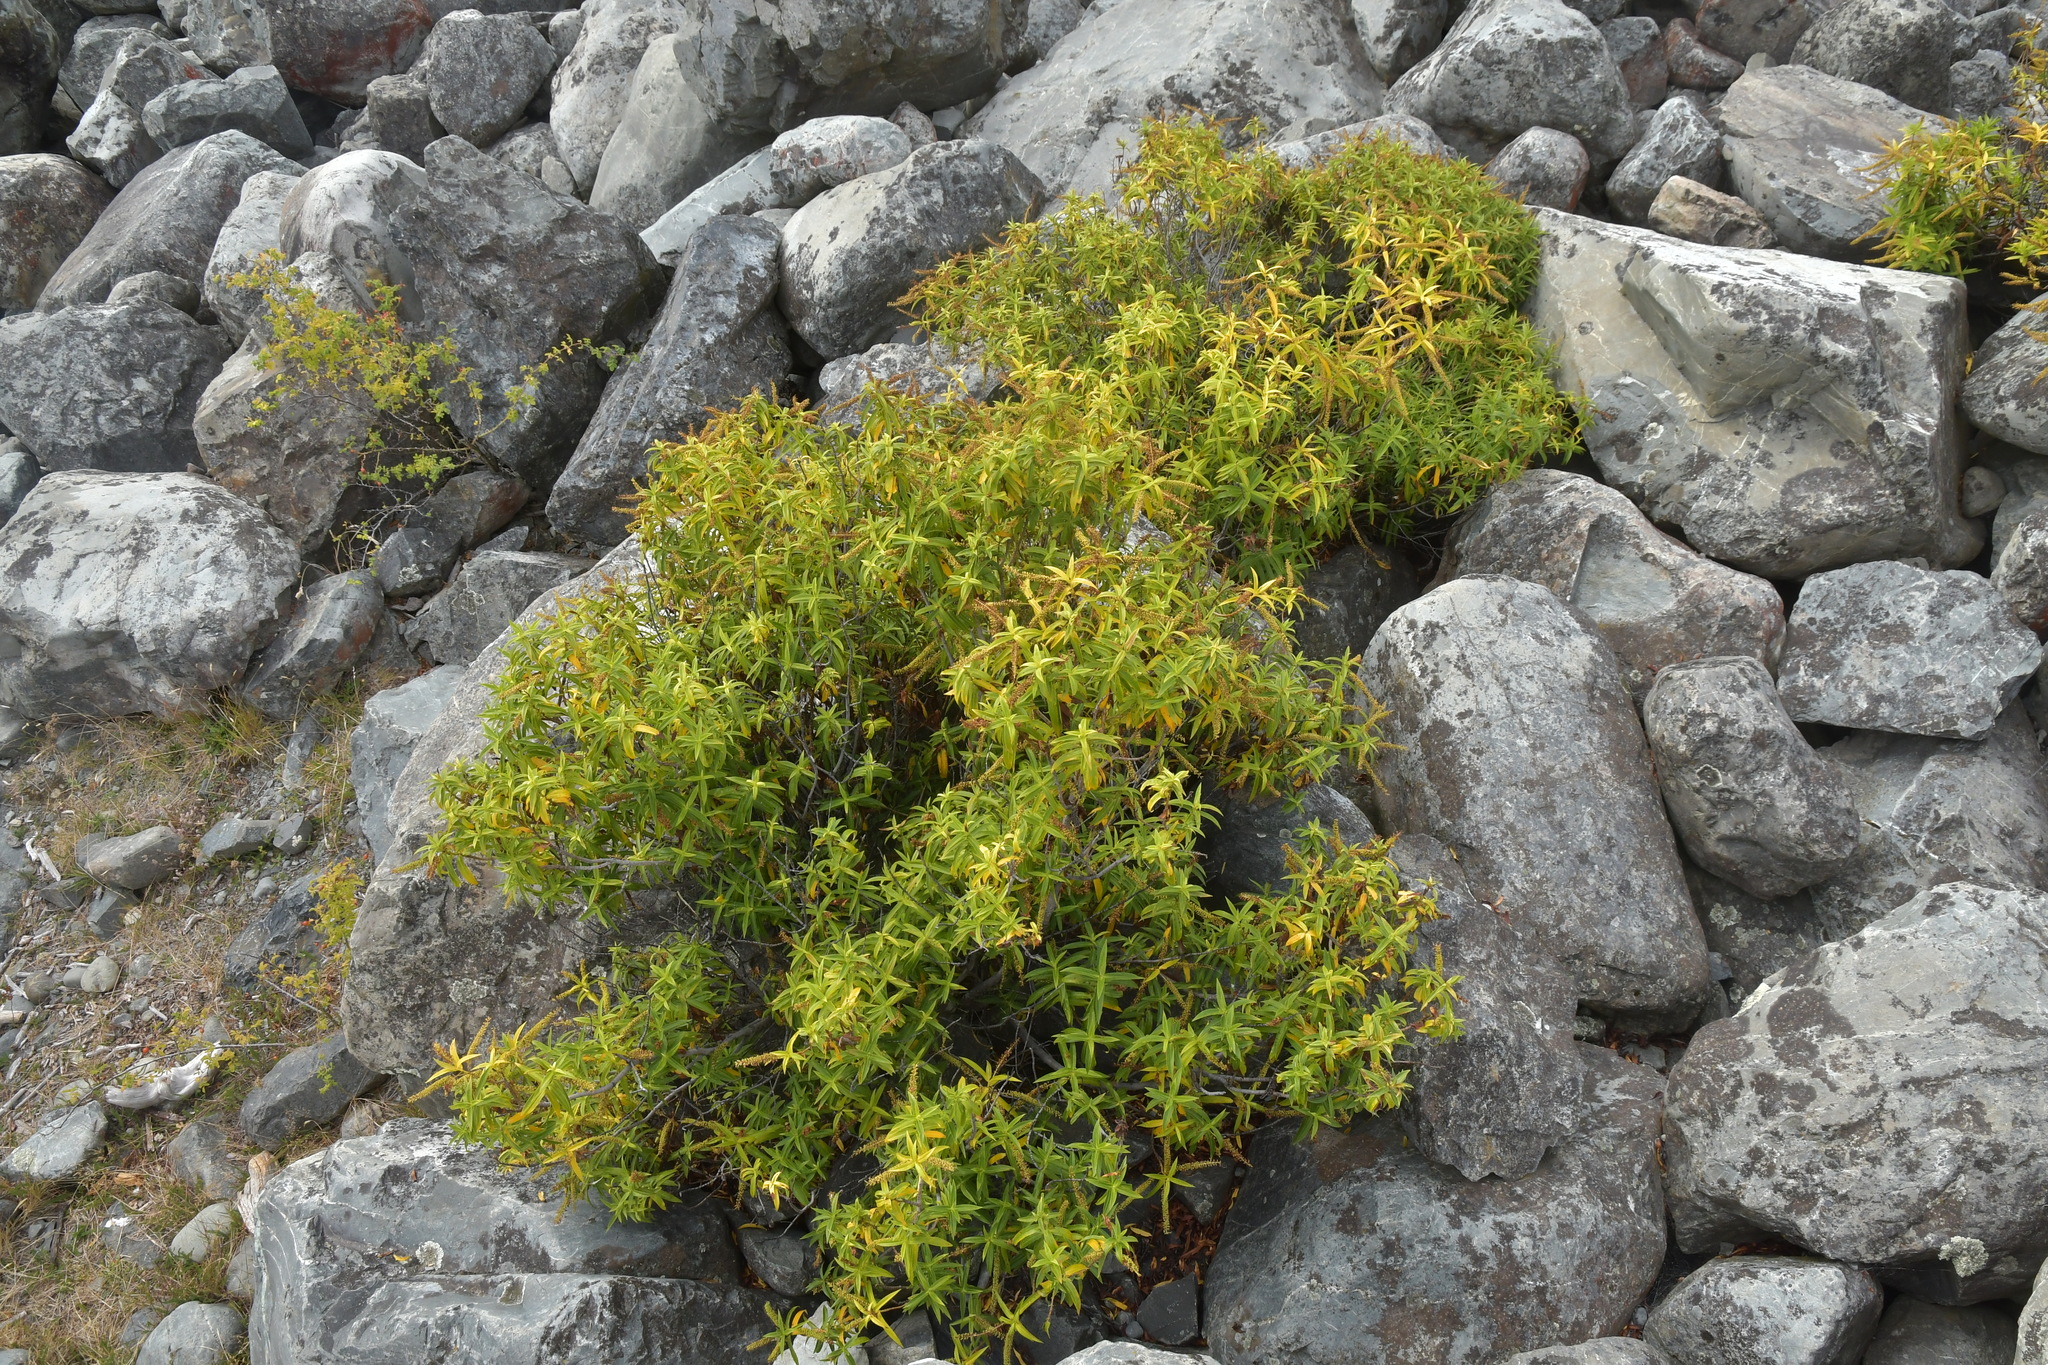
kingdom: Plantae
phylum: Tracheophyta
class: Magnoliopsida
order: Lamiales
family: Plantaginaceae
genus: Veronica
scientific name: Veronica salicifolia
